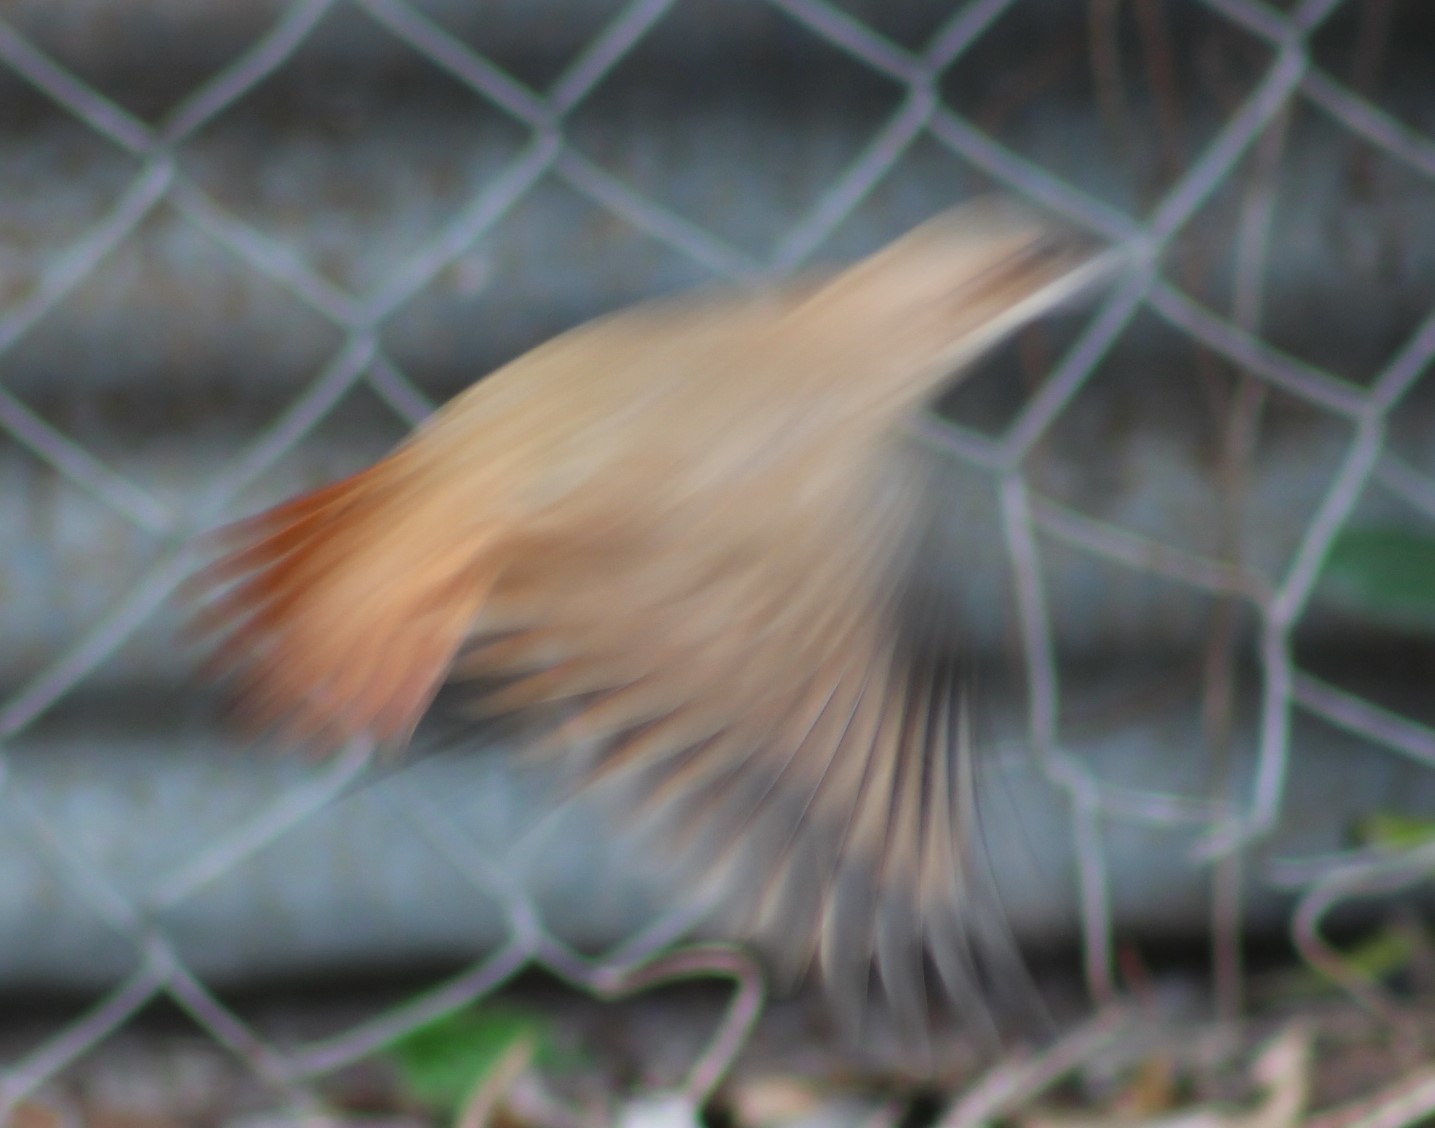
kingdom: Animalia
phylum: Chordata
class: Aves
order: Passeriformes
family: Furnariidae
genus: Furnarius
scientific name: Furnarius rufus
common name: Rufous hornero
